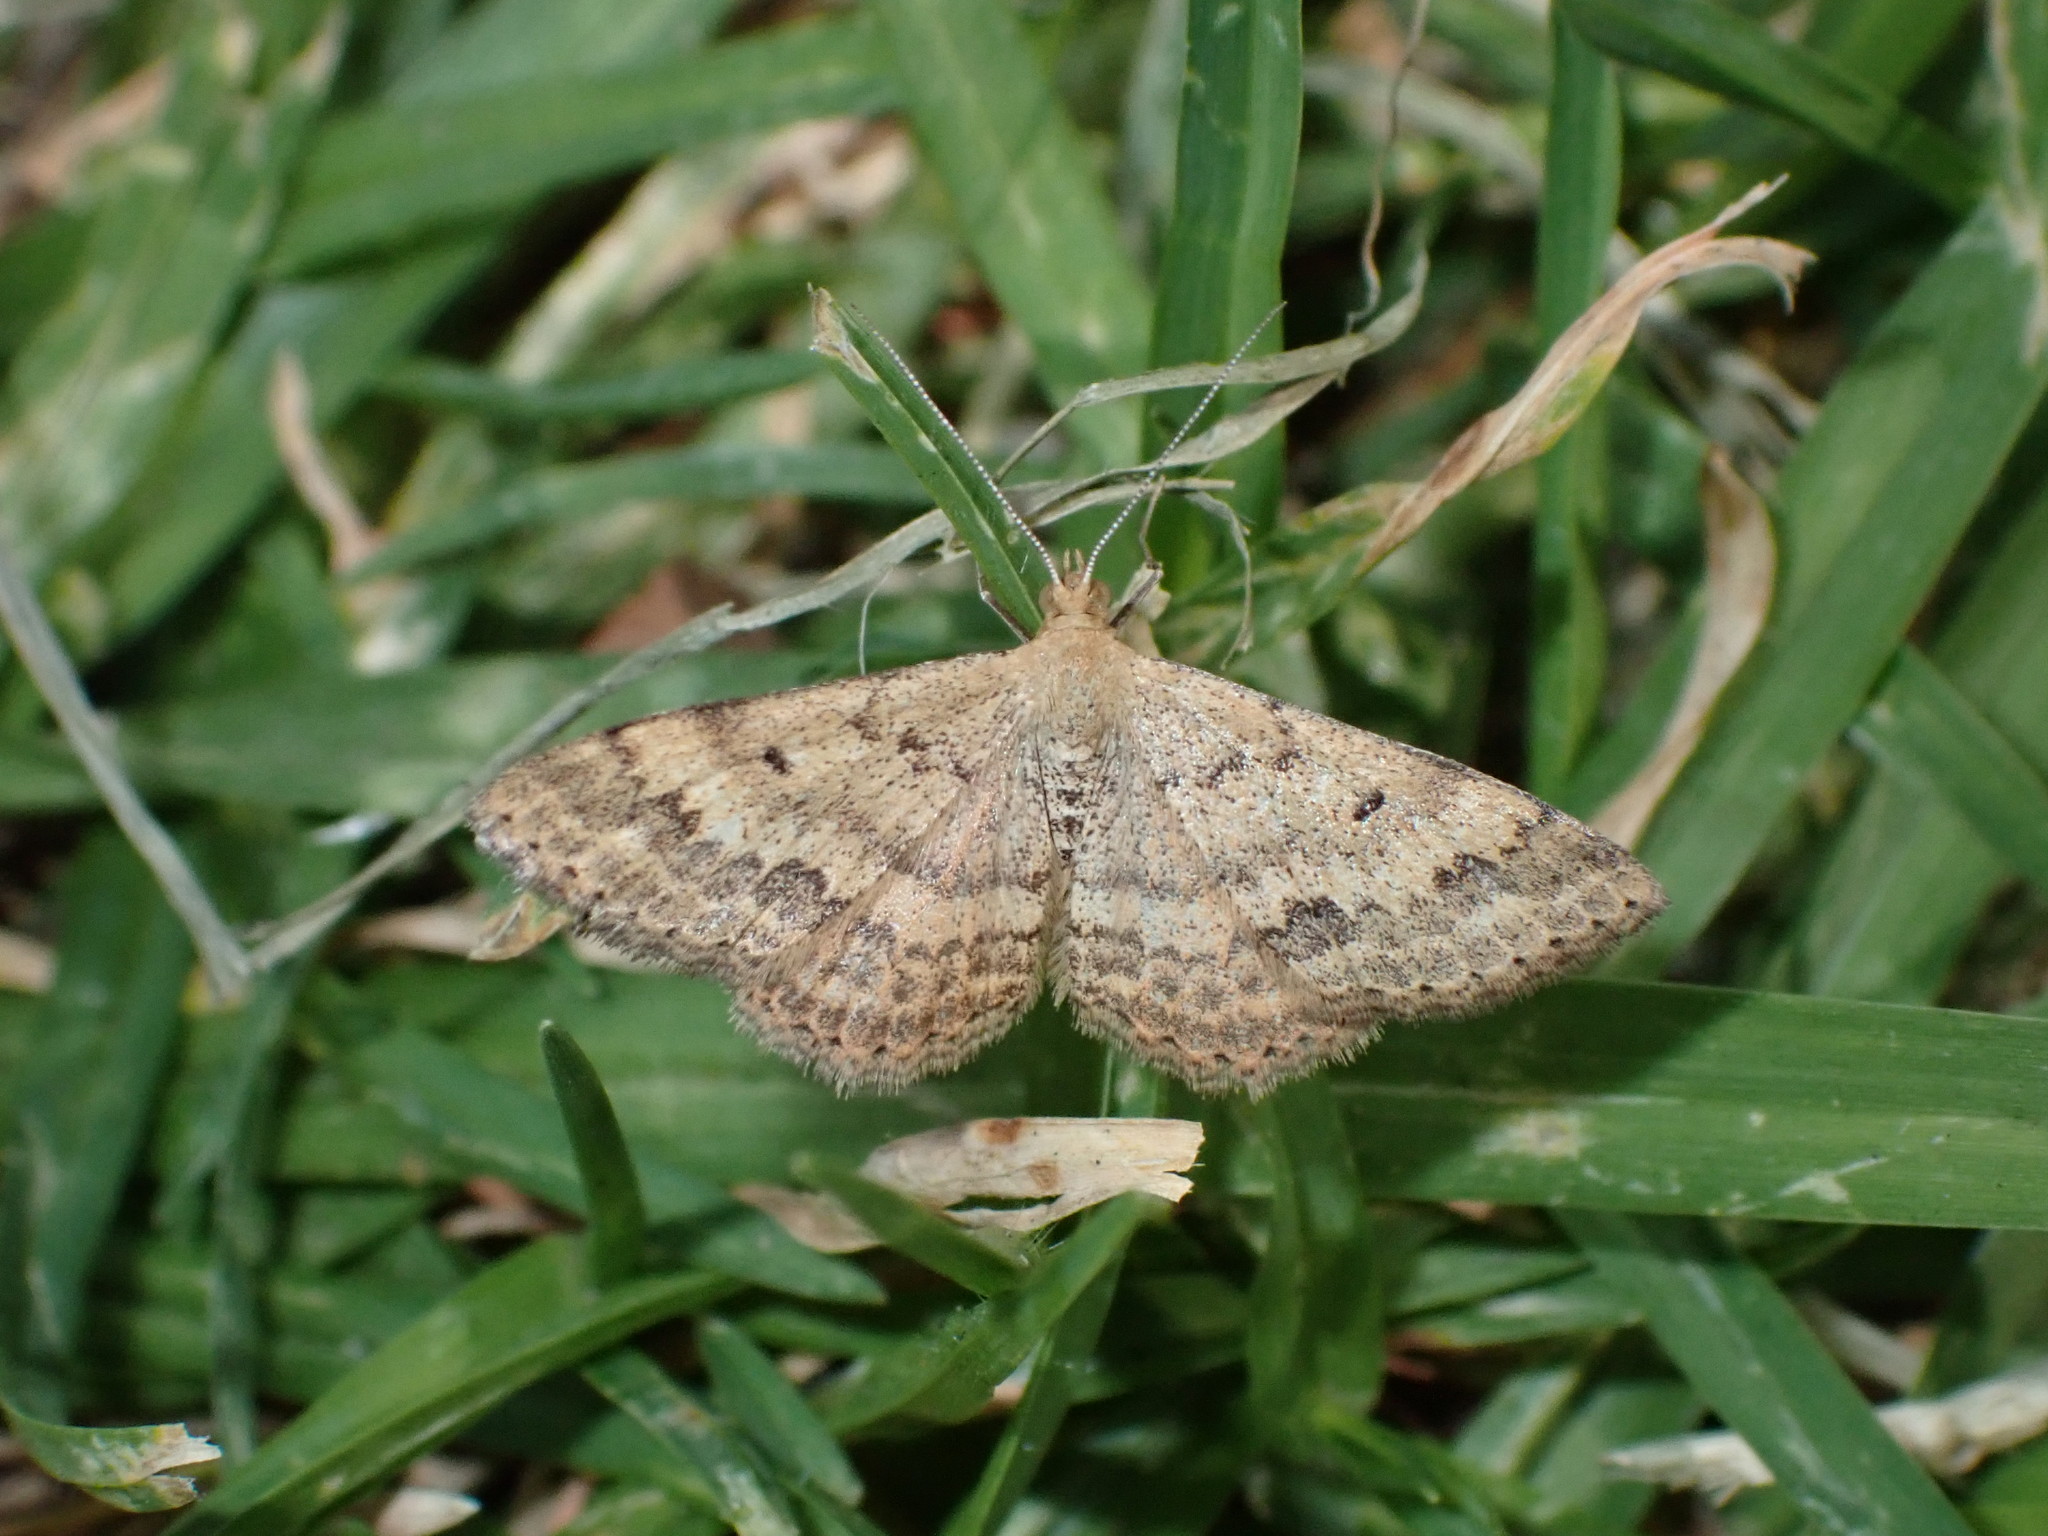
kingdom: Animalia
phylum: Arthropoda
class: Insecta
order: Lepidoptera
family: Geometridae
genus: Scopula
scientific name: Scopula rubraria
